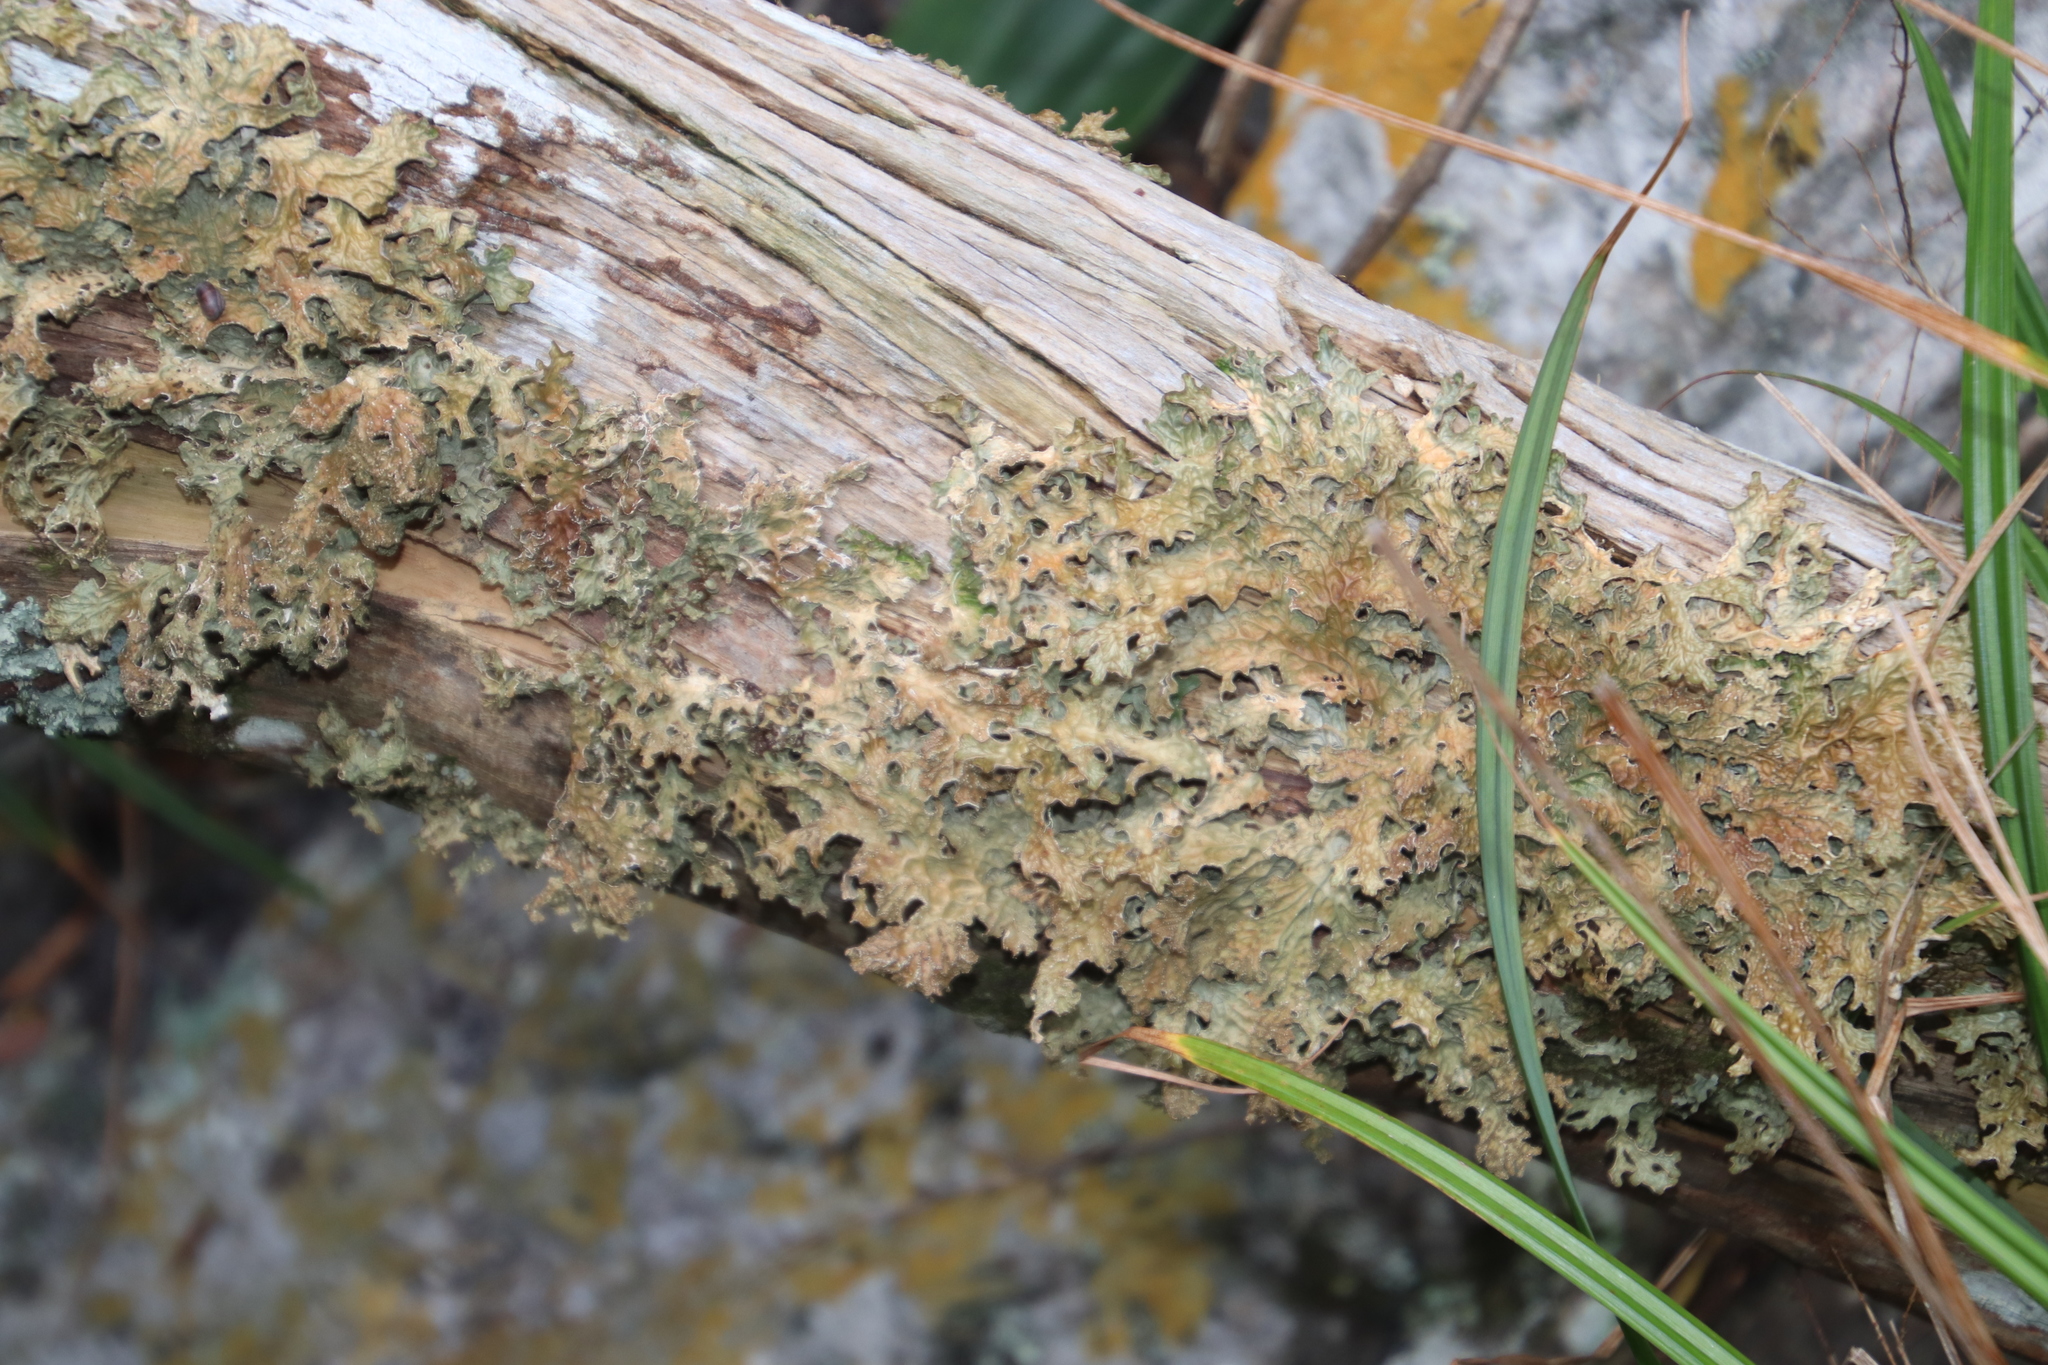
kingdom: Fungi
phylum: Ascomycota
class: Lecanoromycetes
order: Peltigerales
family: Lobariaceae
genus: Lobaria
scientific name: Lobaria pulmonaria
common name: Lungwort
